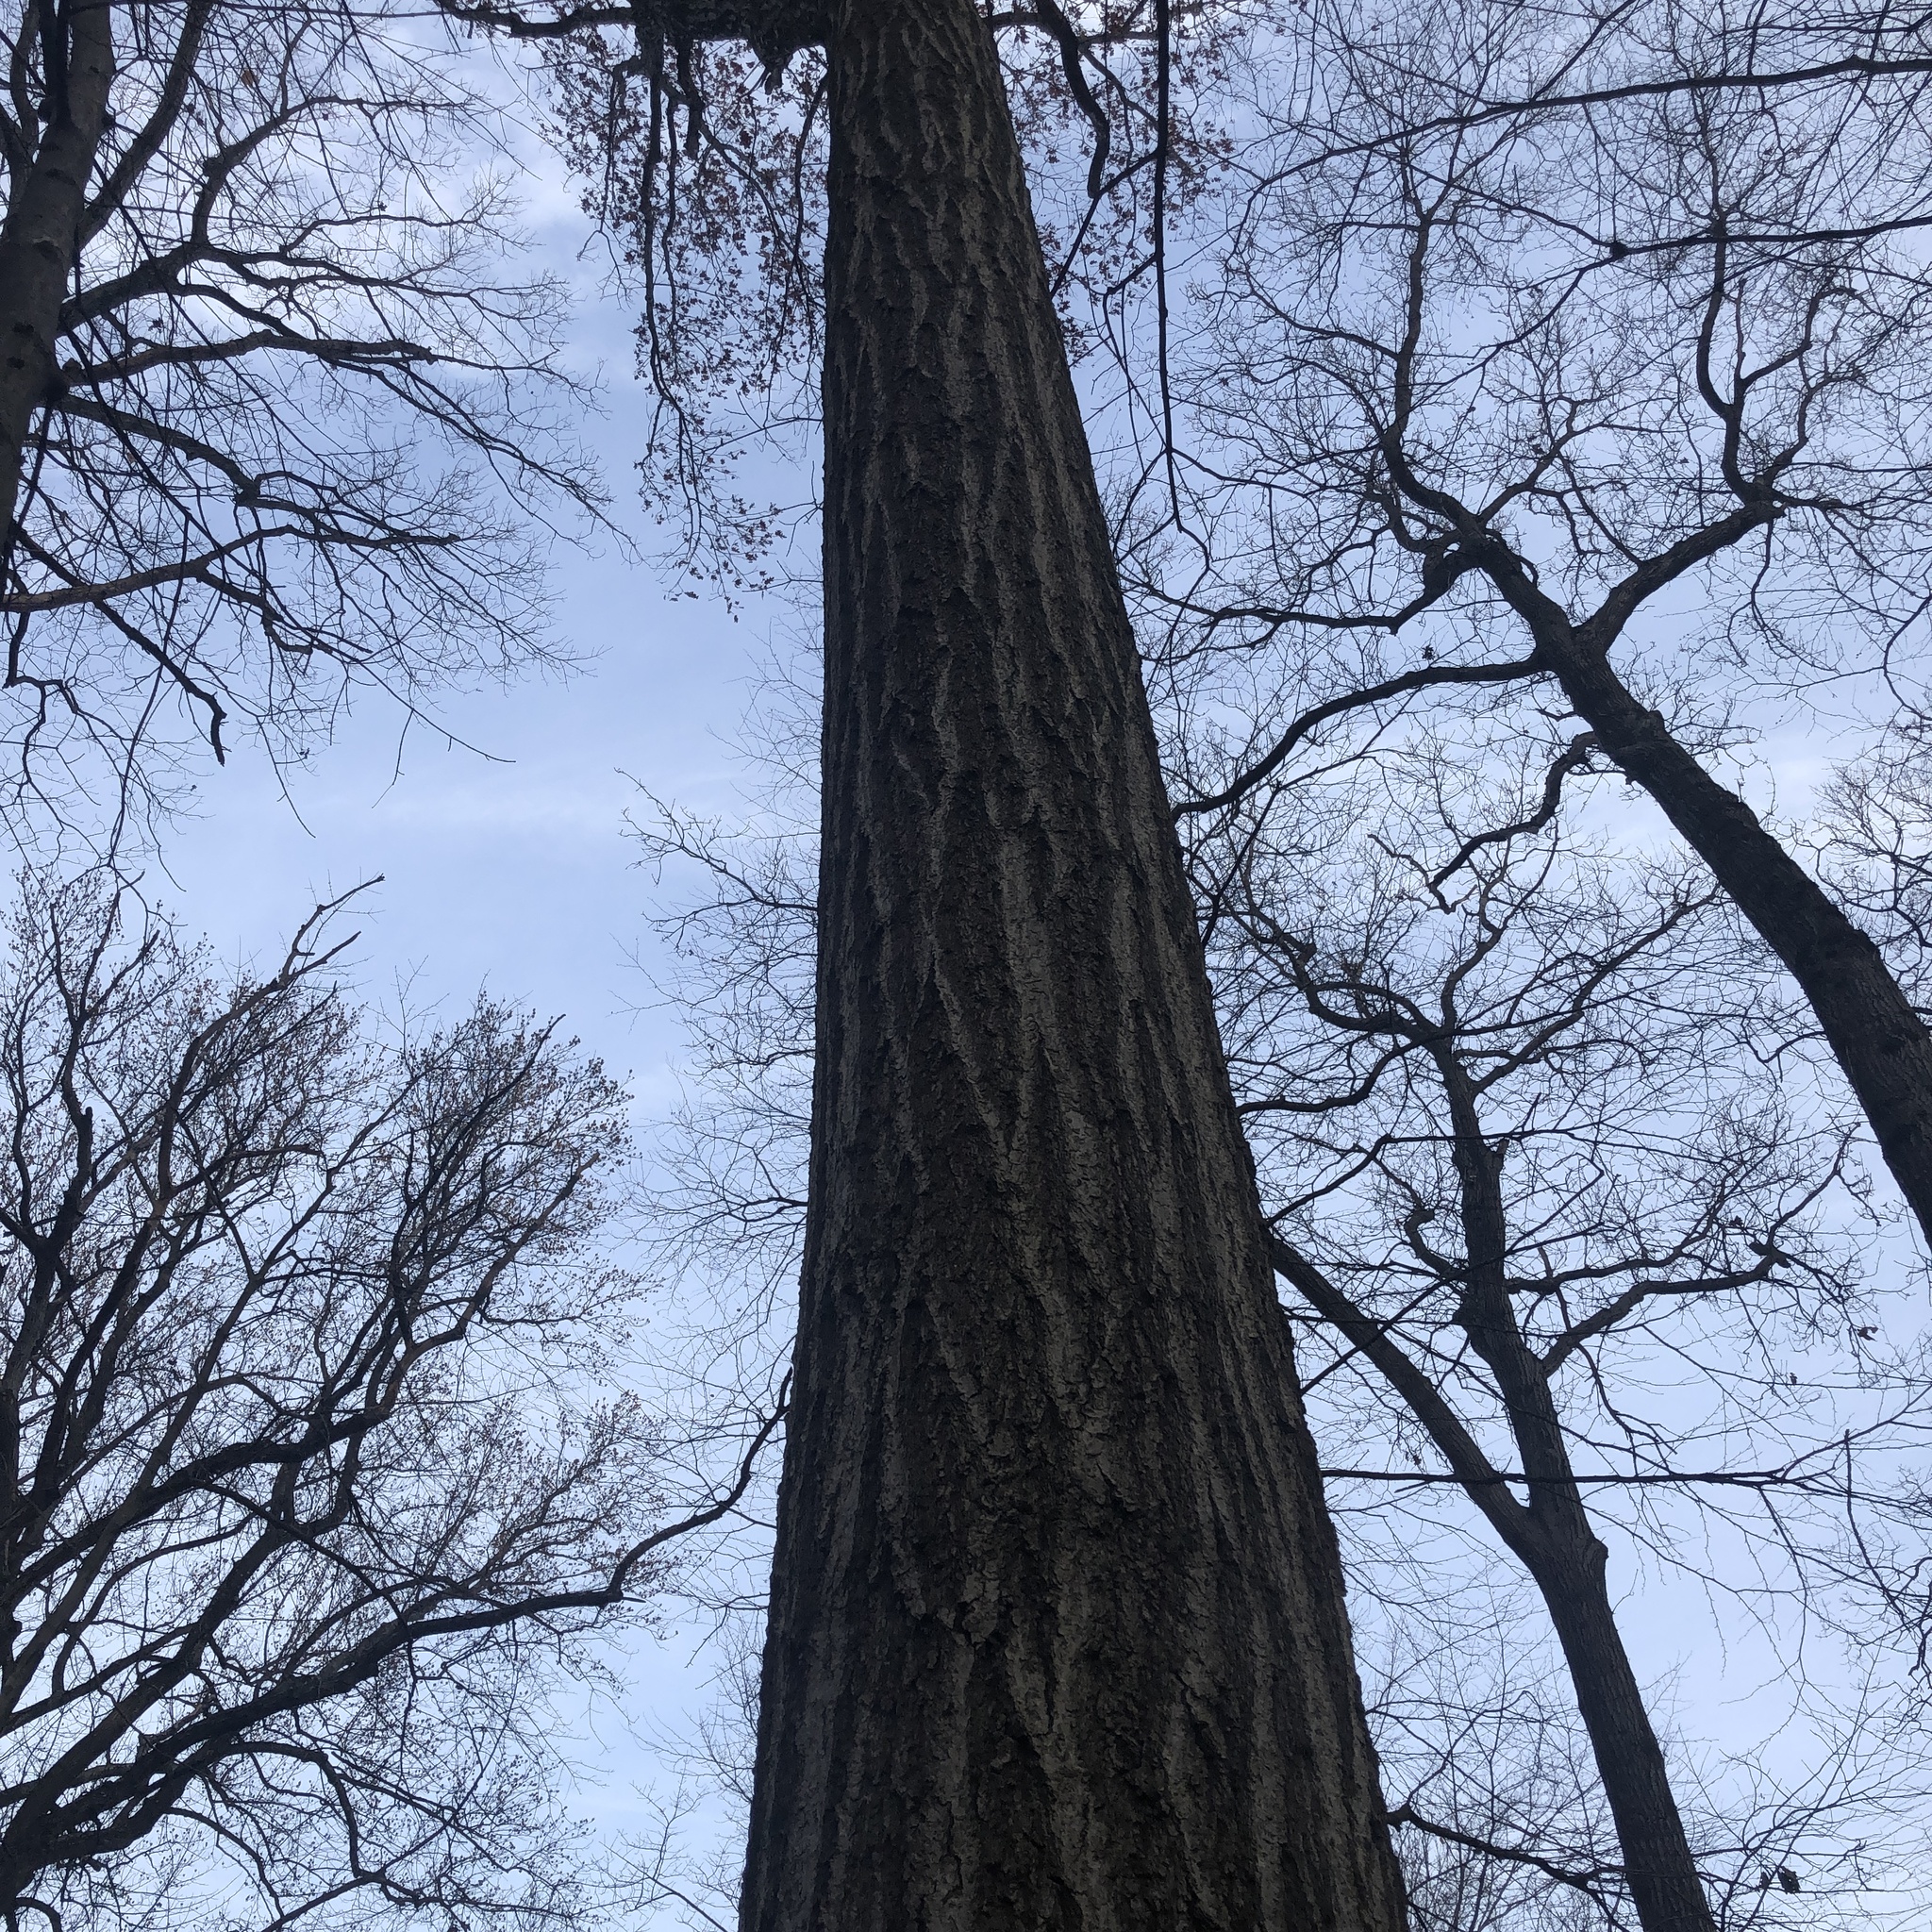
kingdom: Plantae
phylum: Tracheophyta
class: Magnoliopsida
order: Fagales
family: Fagaceae
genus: Quercus
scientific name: Quercus rubra
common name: Red oak
